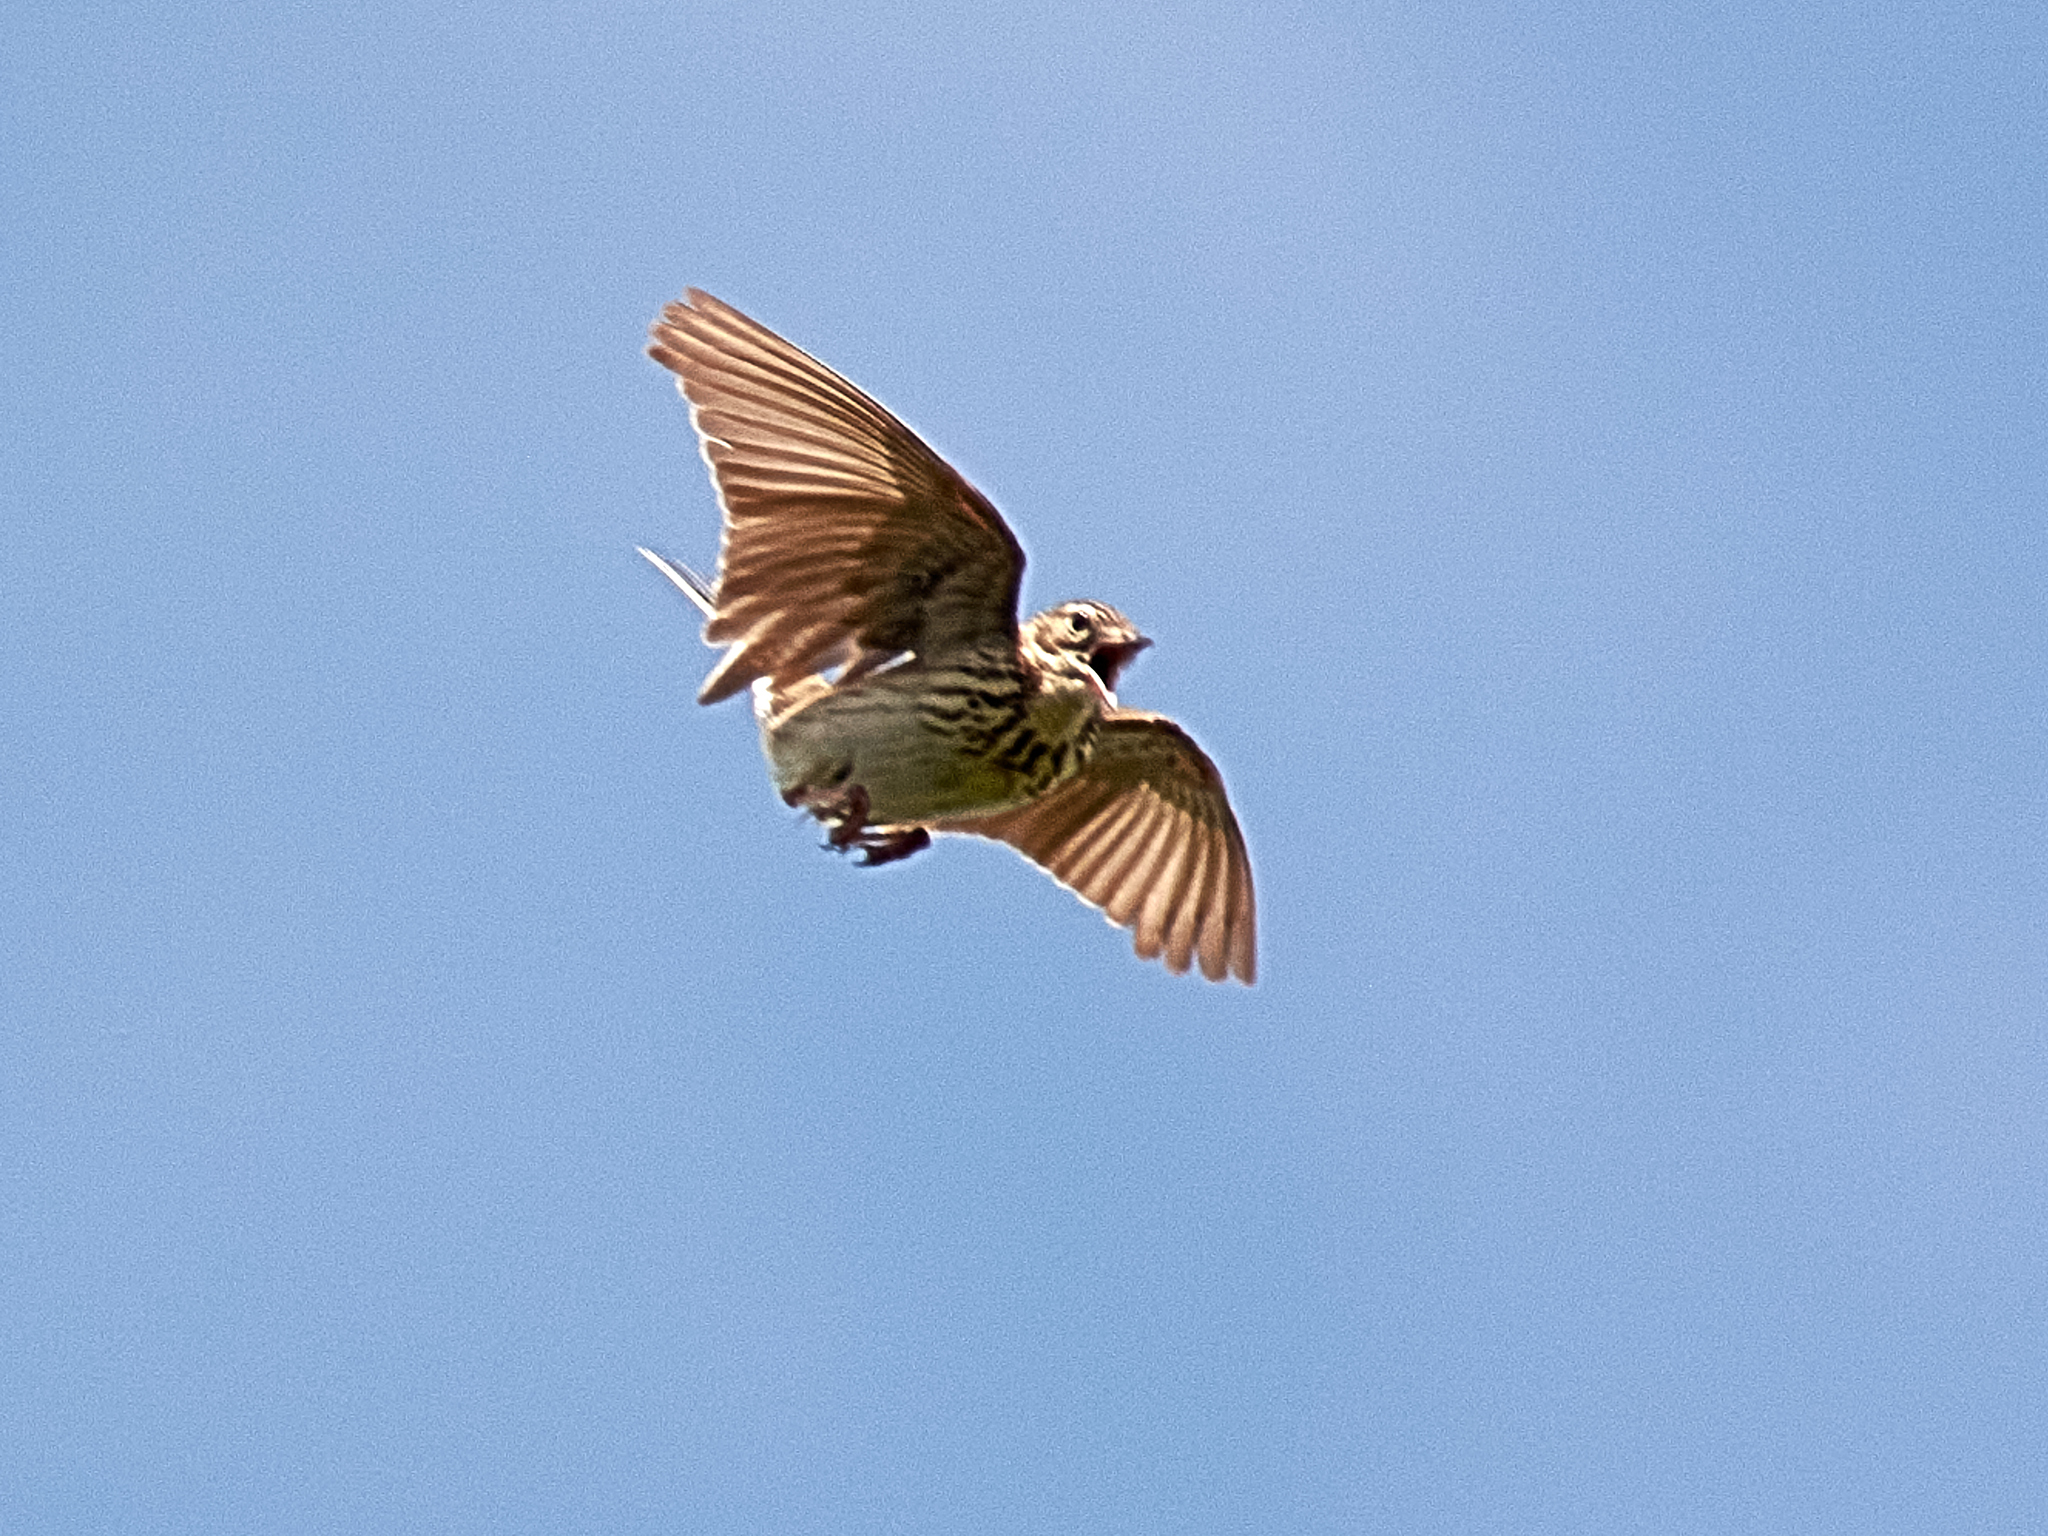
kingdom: Animalia
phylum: Chordata
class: Aves
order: Passeriformes
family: Motacillidae
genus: Anthus
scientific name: Anthus trivialis
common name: Tree pipit
